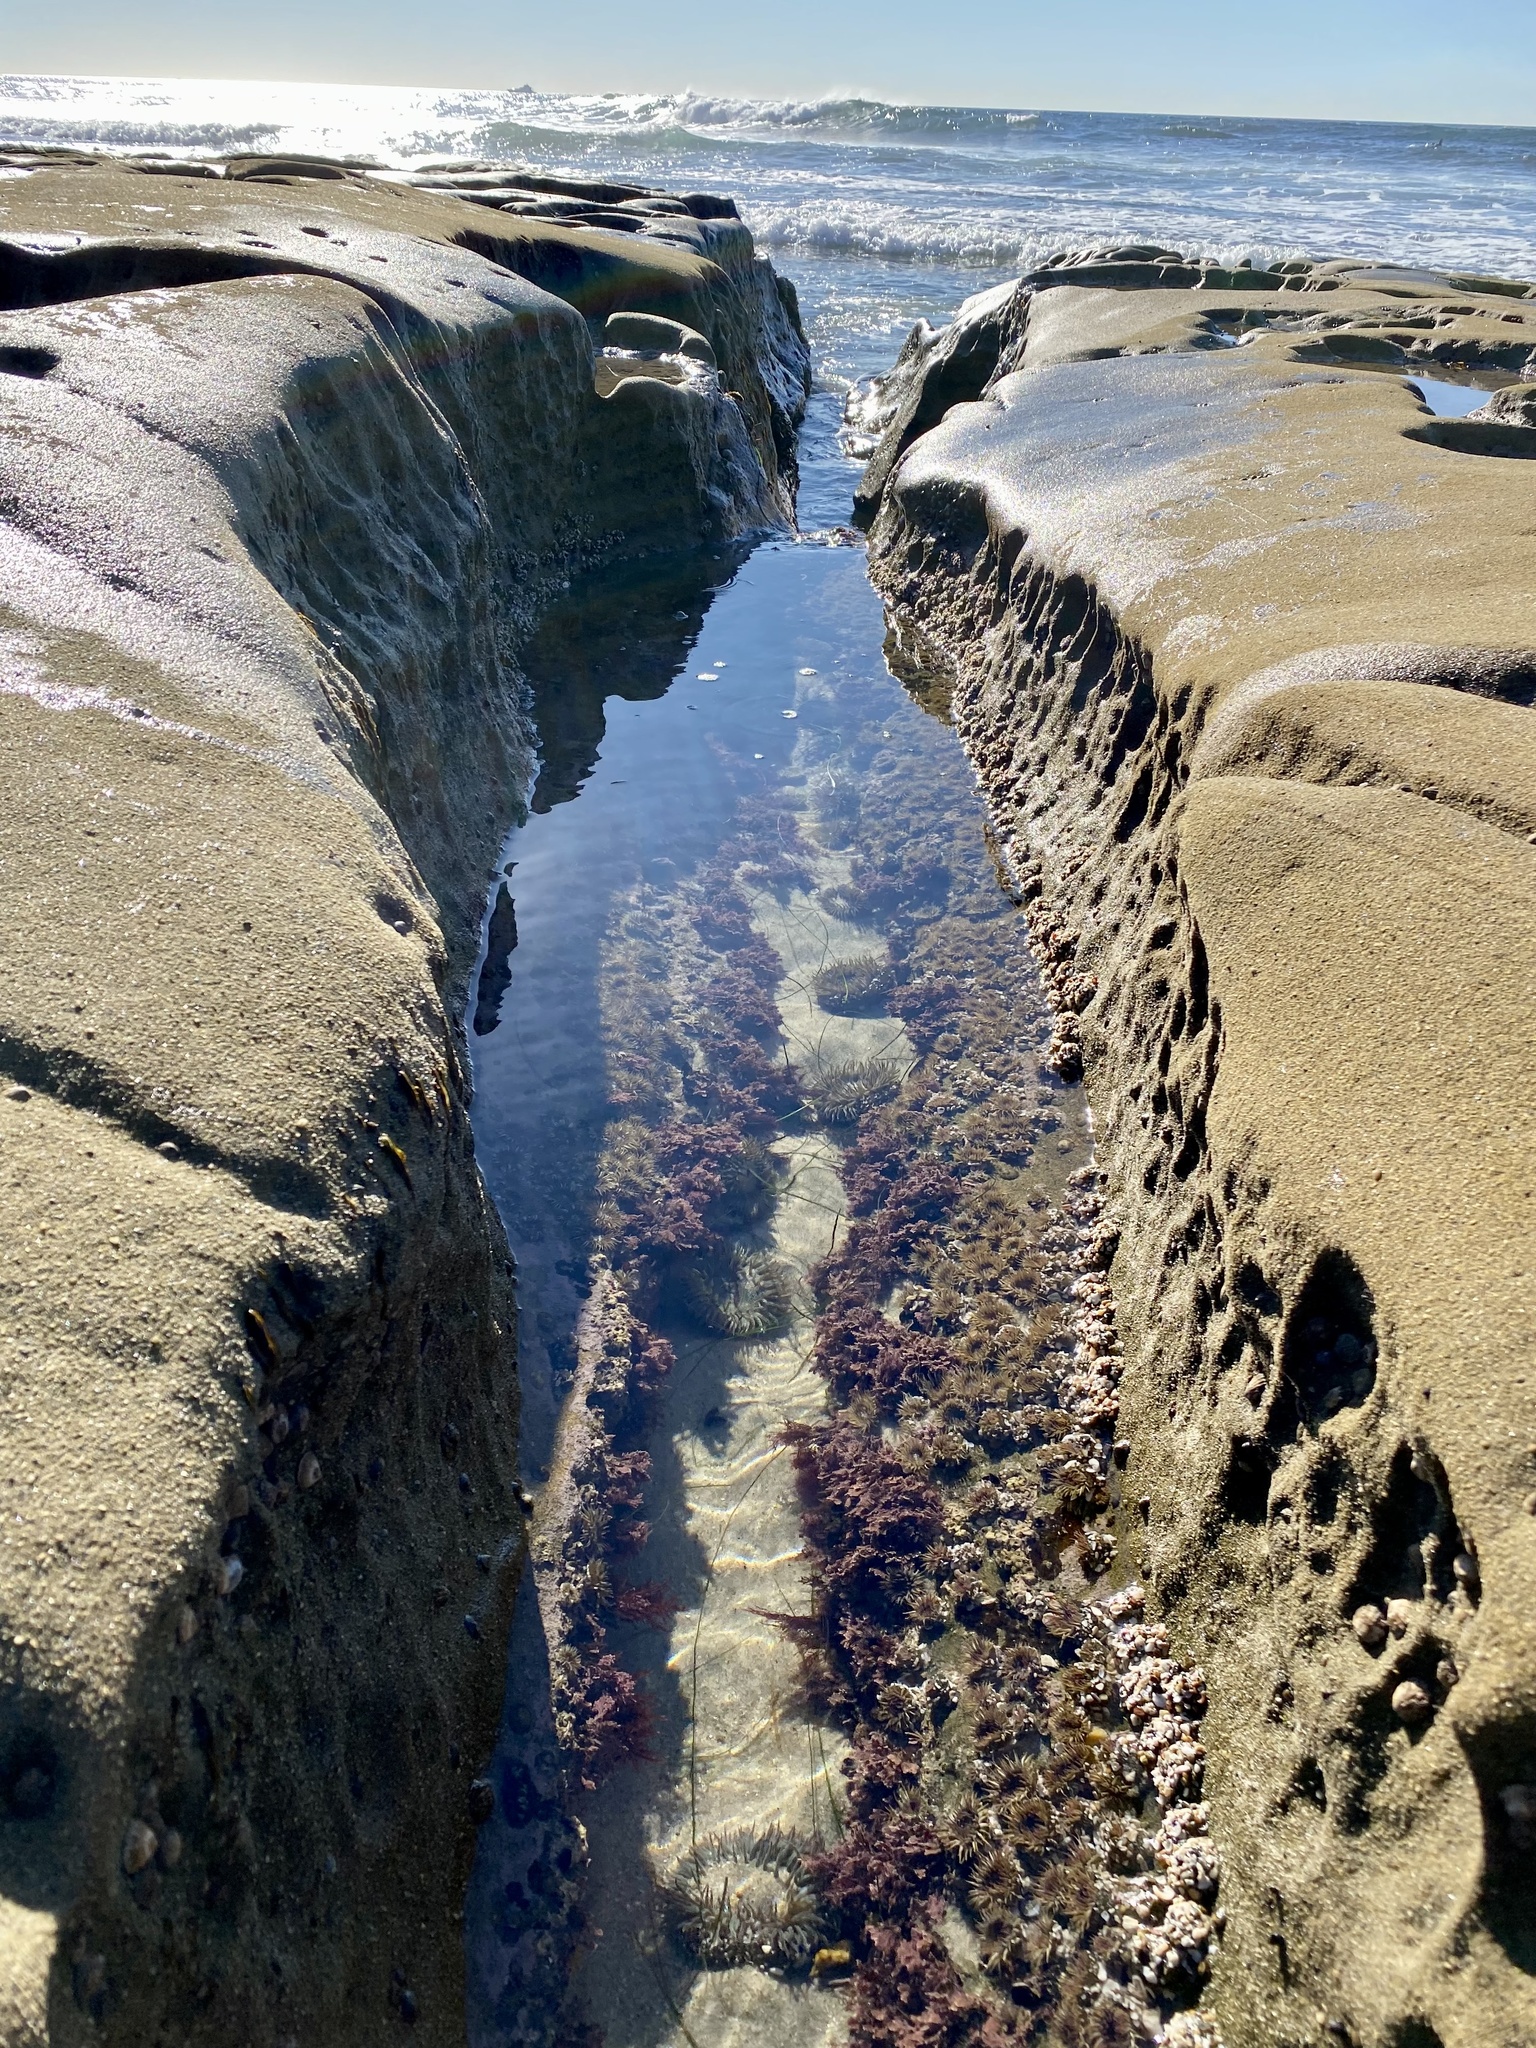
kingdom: Animalia
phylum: Cnidaria
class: Anthozoa
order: Actiniaria
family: Actiniidae
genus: Anthopleura
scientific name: Anthopleura elegantissima
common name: Clonal anemone
